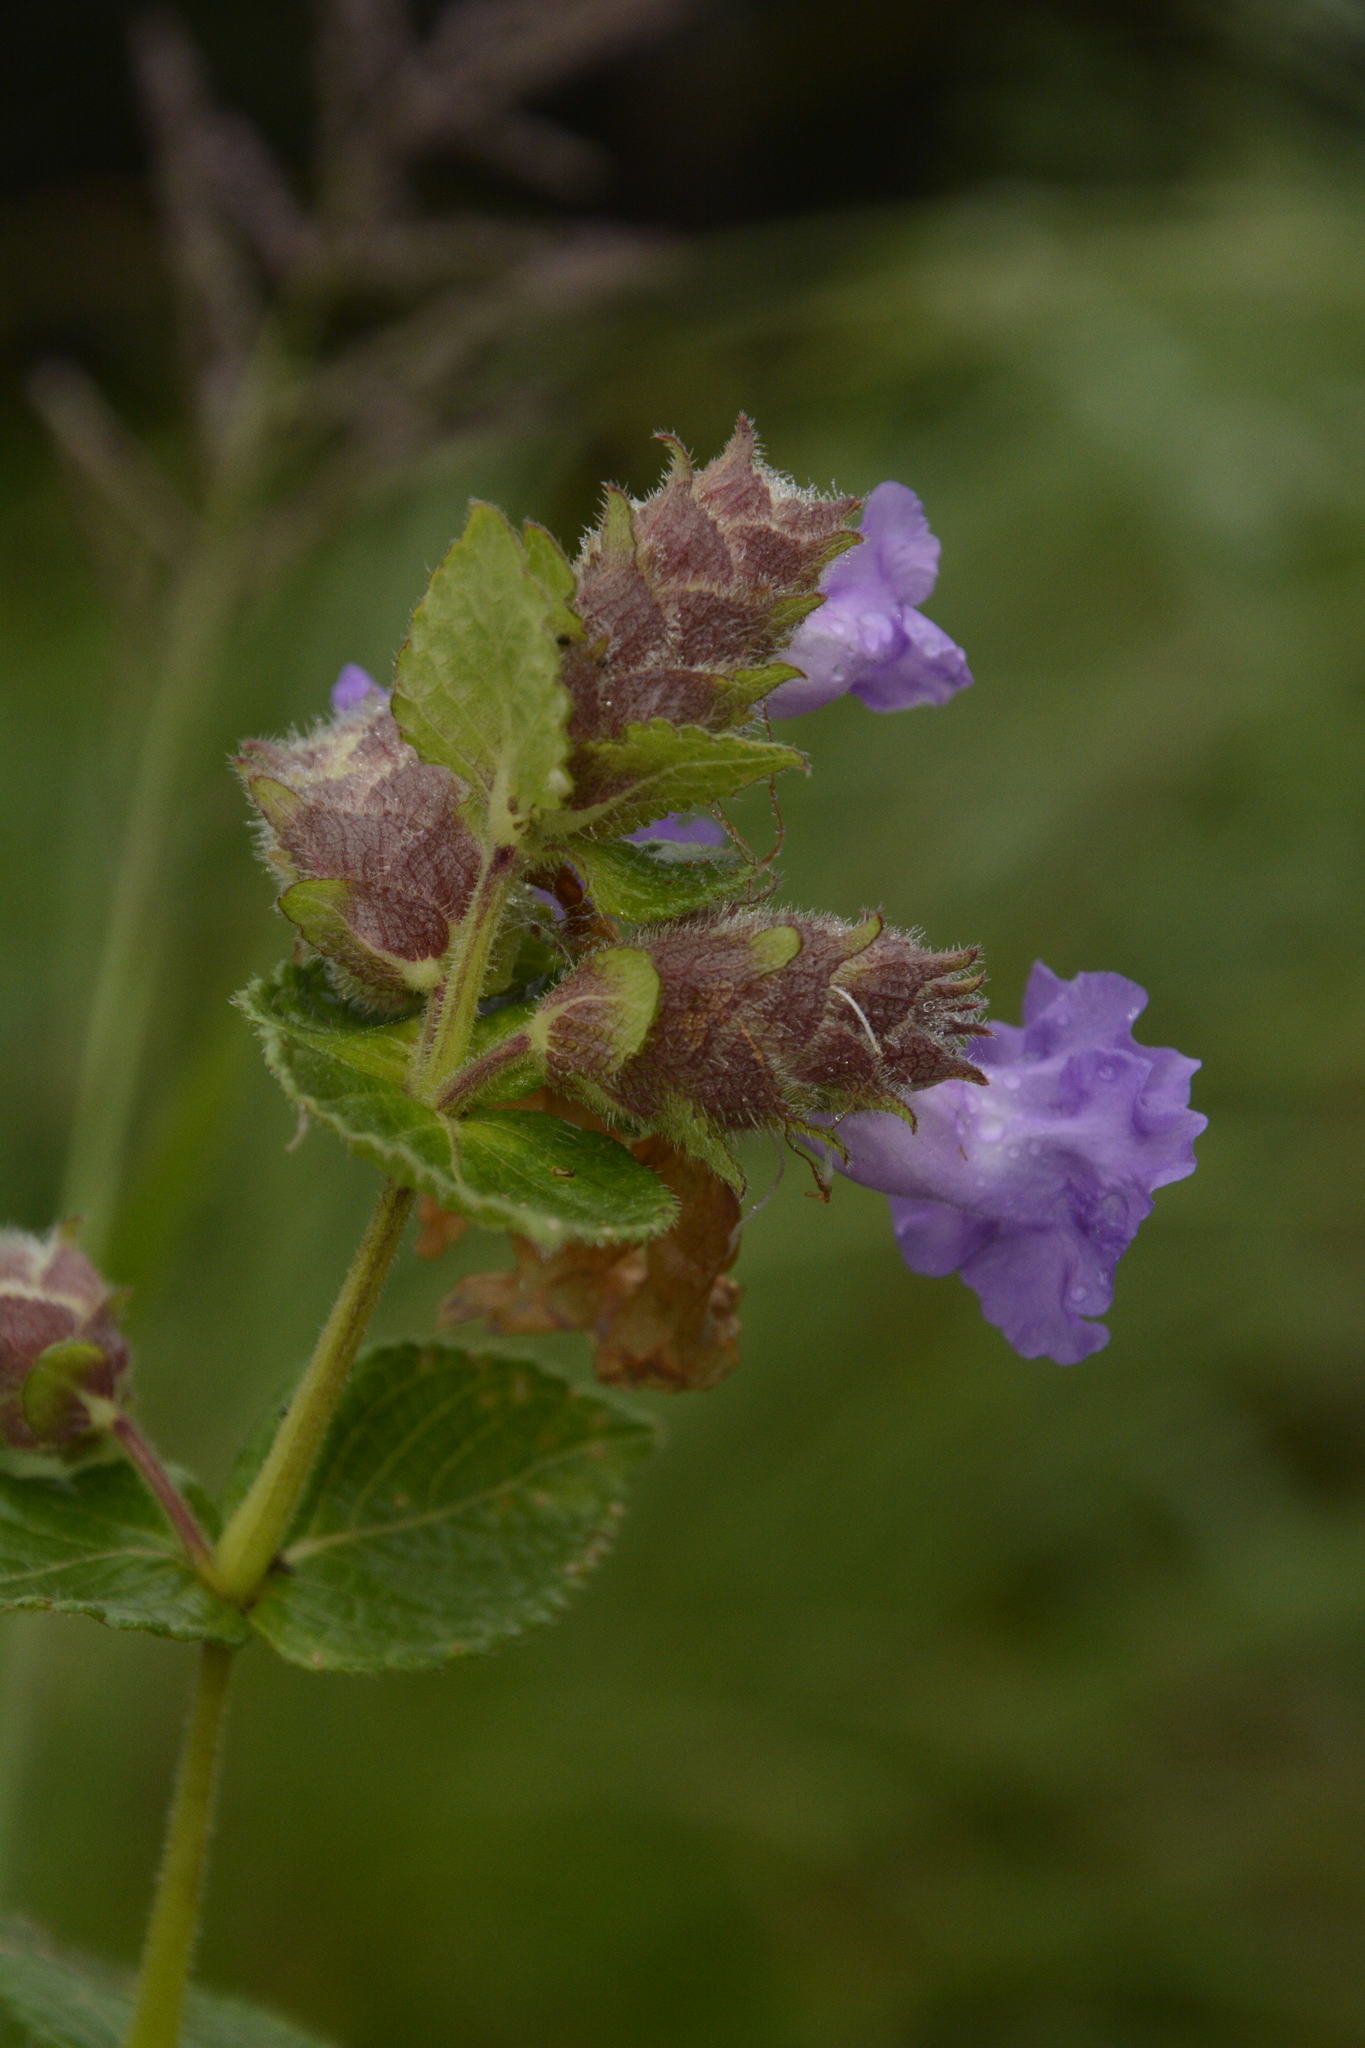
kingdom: Plantae
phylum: Tracheophyta
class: Magnoliopsida
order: Lamiales
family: Acanthaceae
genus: Strobilanthes
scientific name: Strobilanthes sessilis
